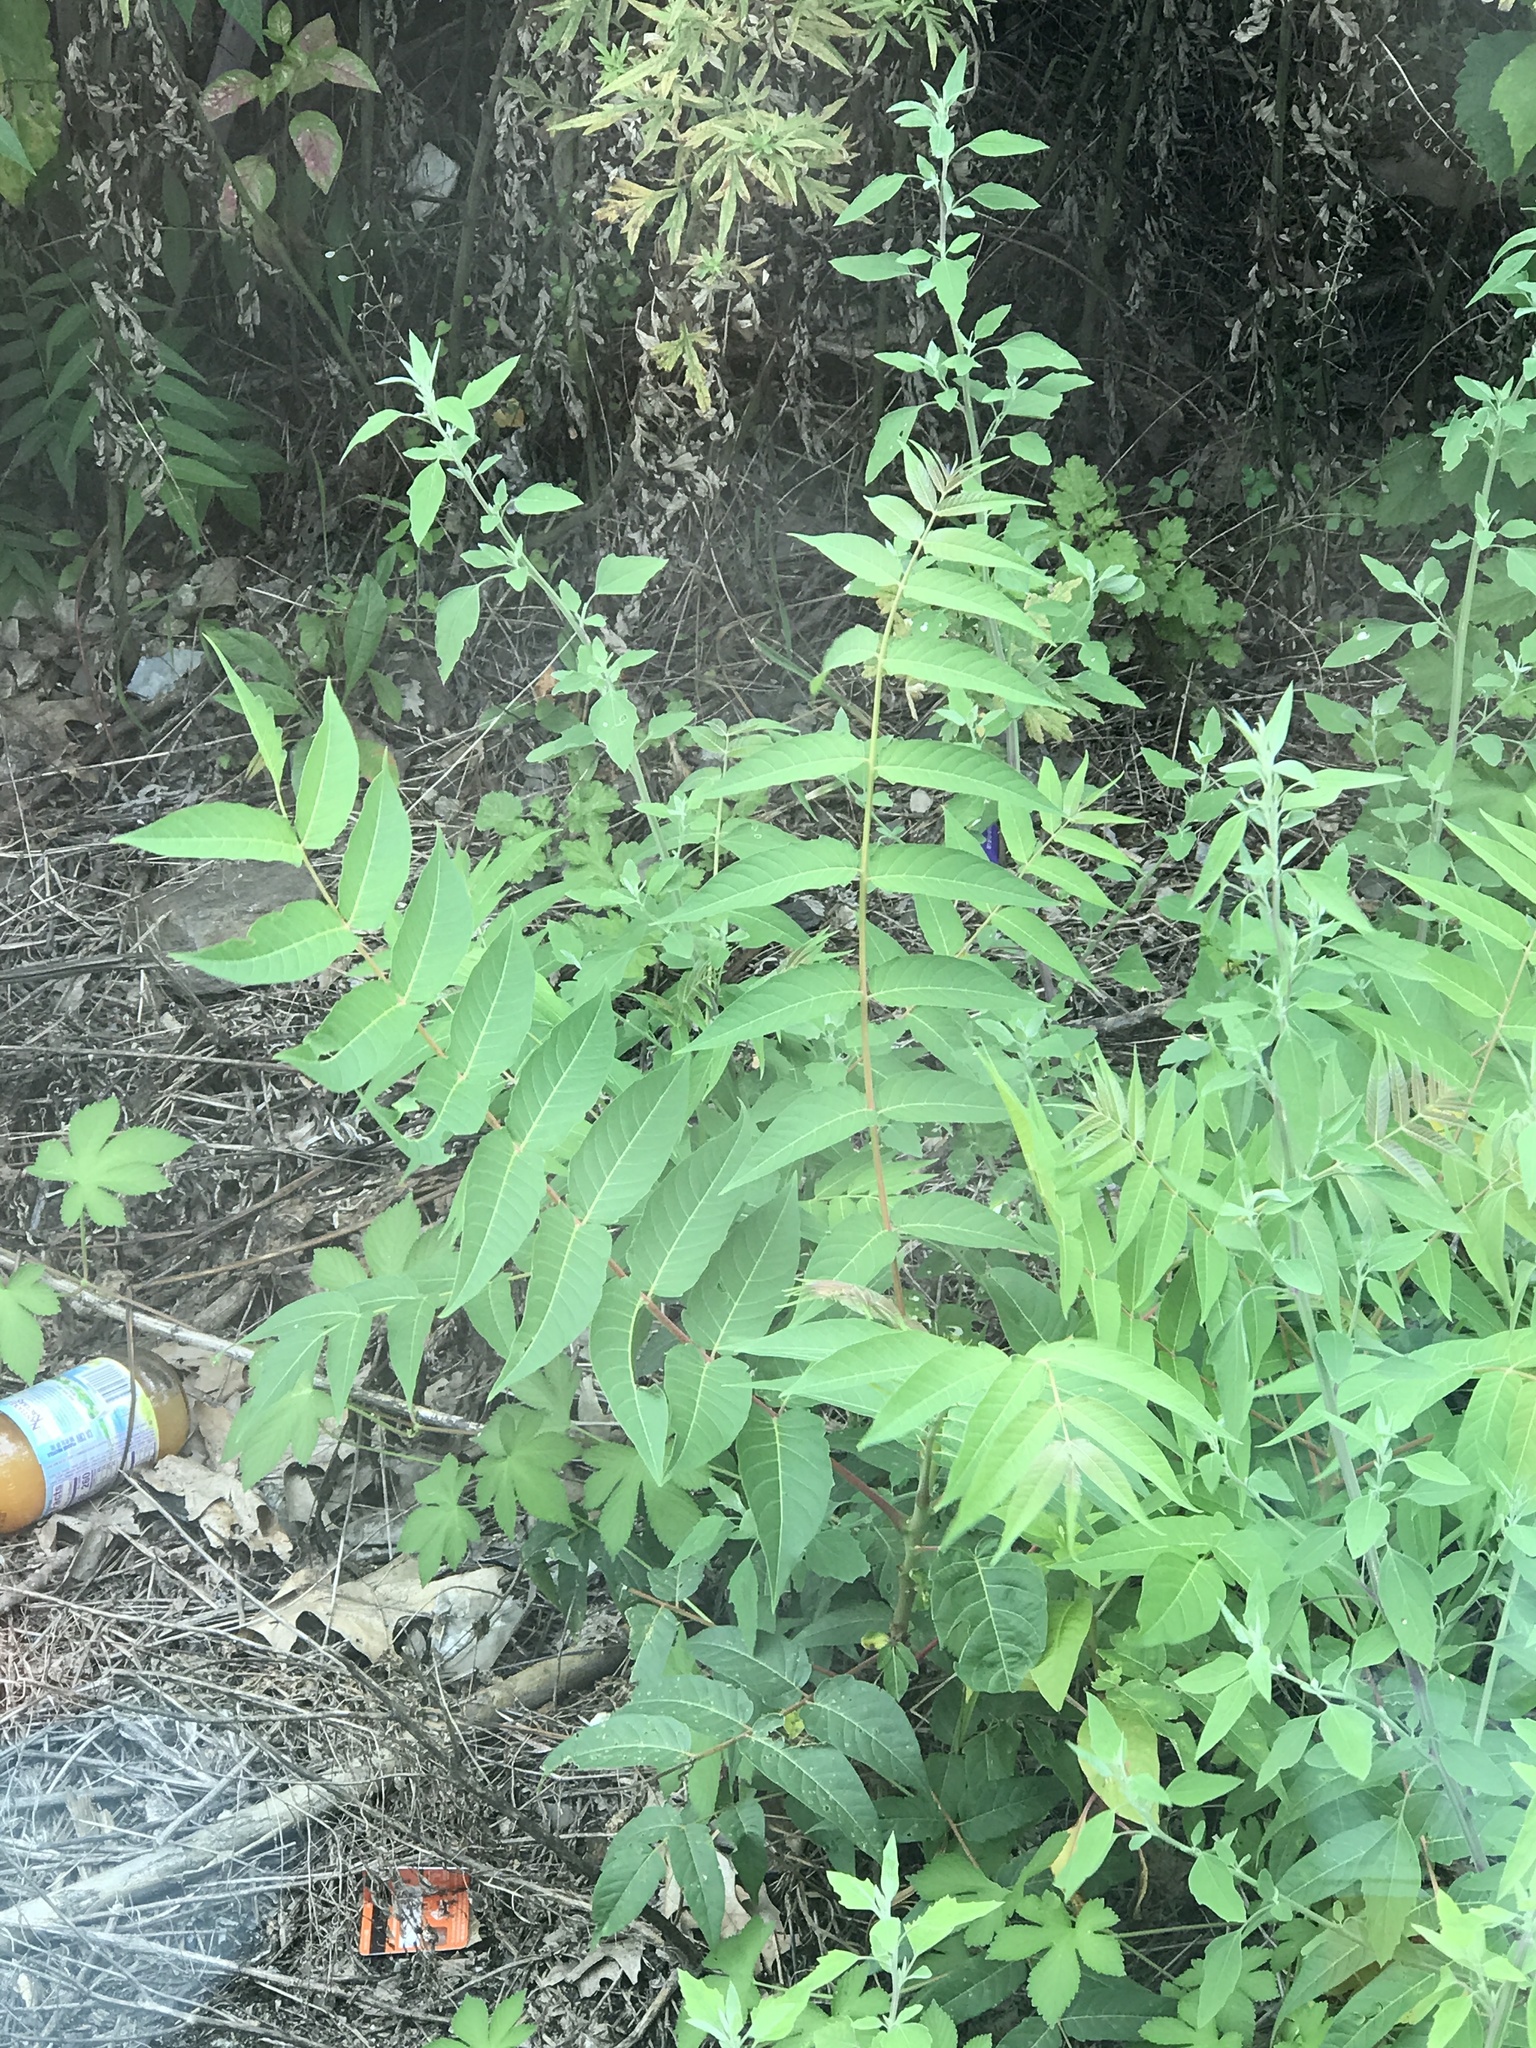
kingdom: Plantae
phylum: Tracheophyta
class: Magnoliopsida
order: Sapindales
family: Simaroubaceae
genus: Ailanthus
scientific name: Ailanthus altissima
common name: Tree-of-heaven
